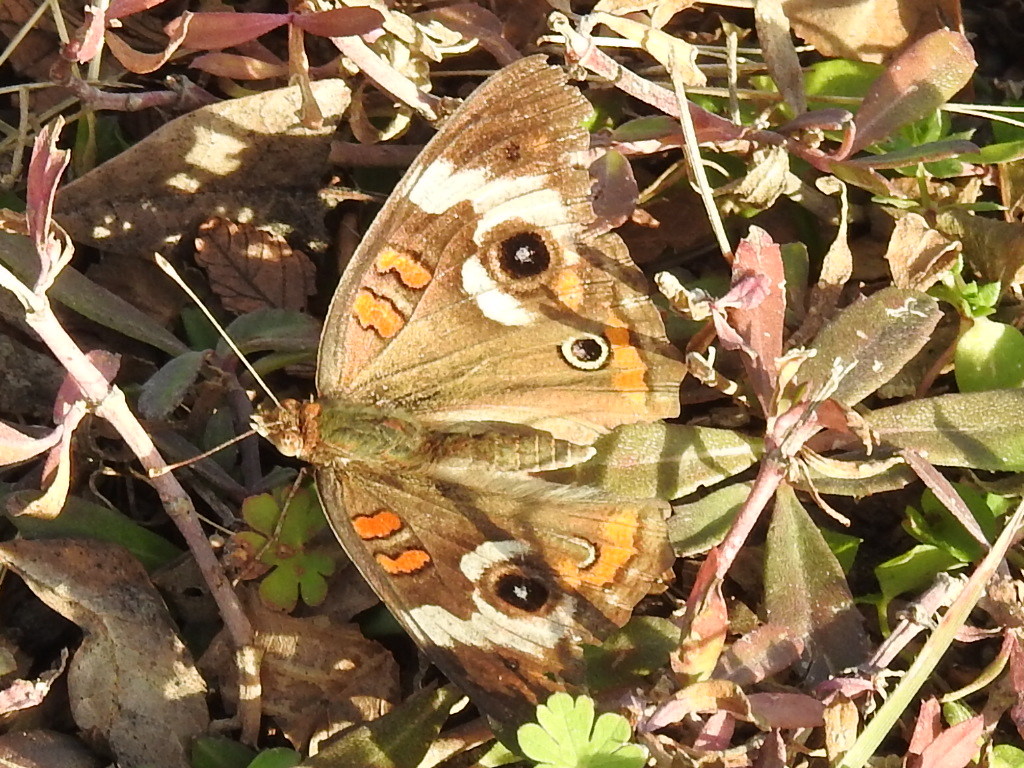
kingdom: Animalia
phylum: Arthropoda
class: Insecta
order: Lepidoptera
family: Nymphalidae
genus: Junonia
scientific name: Junonia coenia
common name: Common buckeye
